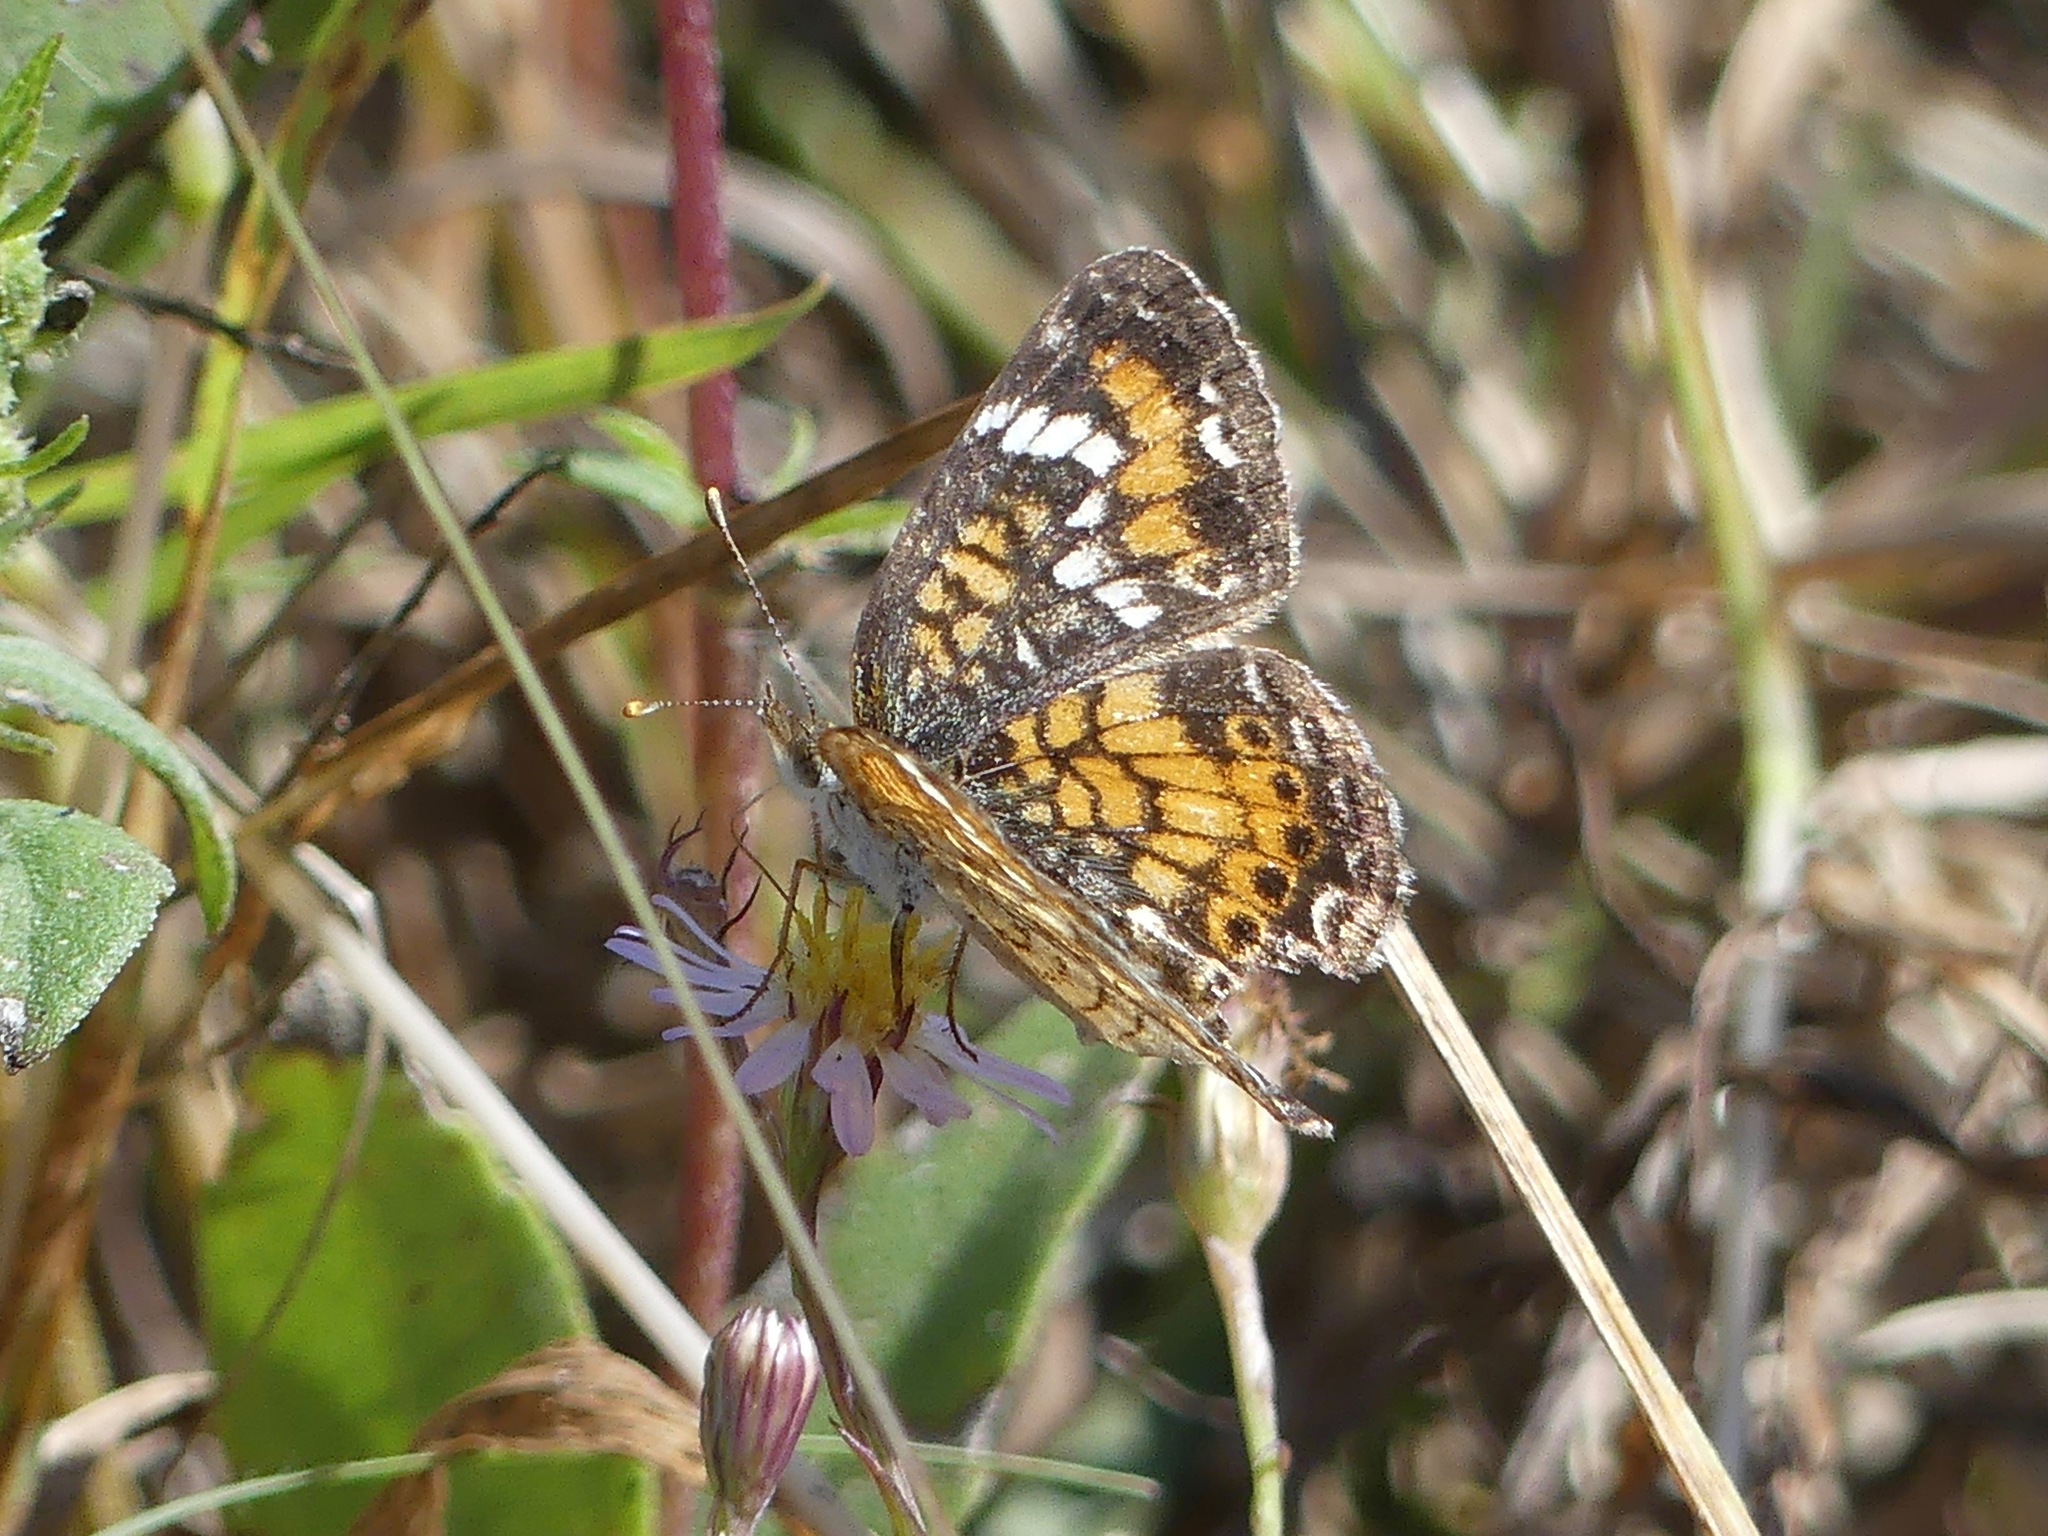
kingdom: Animalia
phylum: Arthropoda
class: Insecta
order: Lepidoptera
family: Nymphalidae
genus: Phyciodes
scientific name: Phyciodes phaon
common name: Phaon crescent
